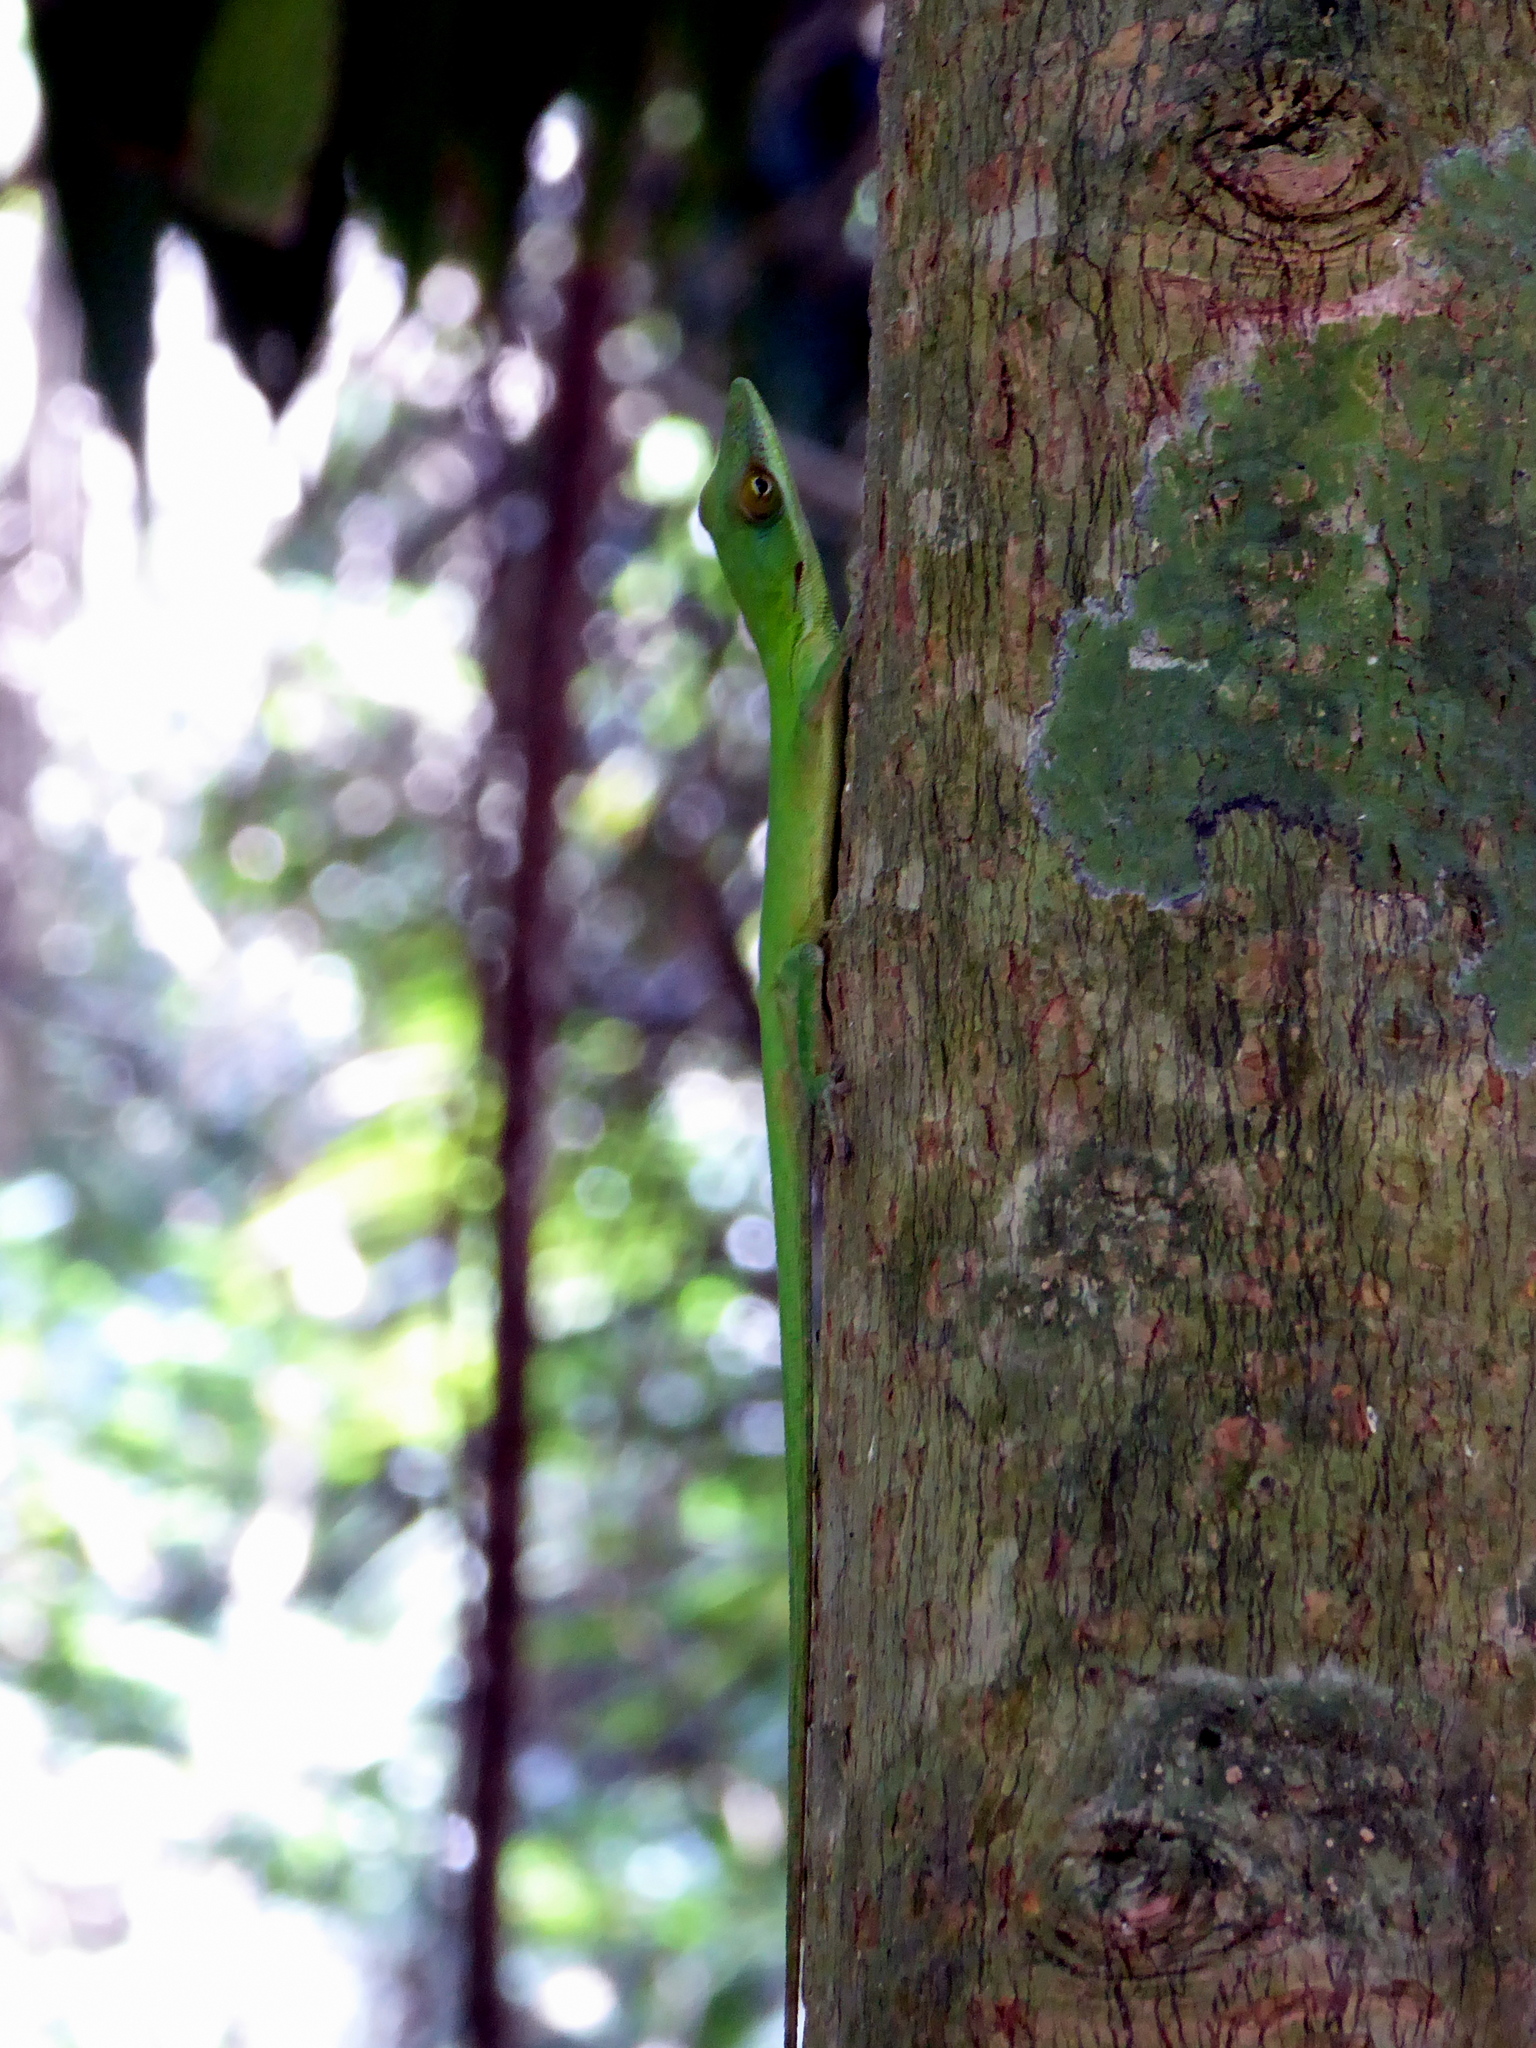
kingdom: Animalia
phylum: Chordata
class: Squamata
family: Dactyloidae
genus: Anolis
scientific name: Anolis allisoni
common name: Allison's anole
